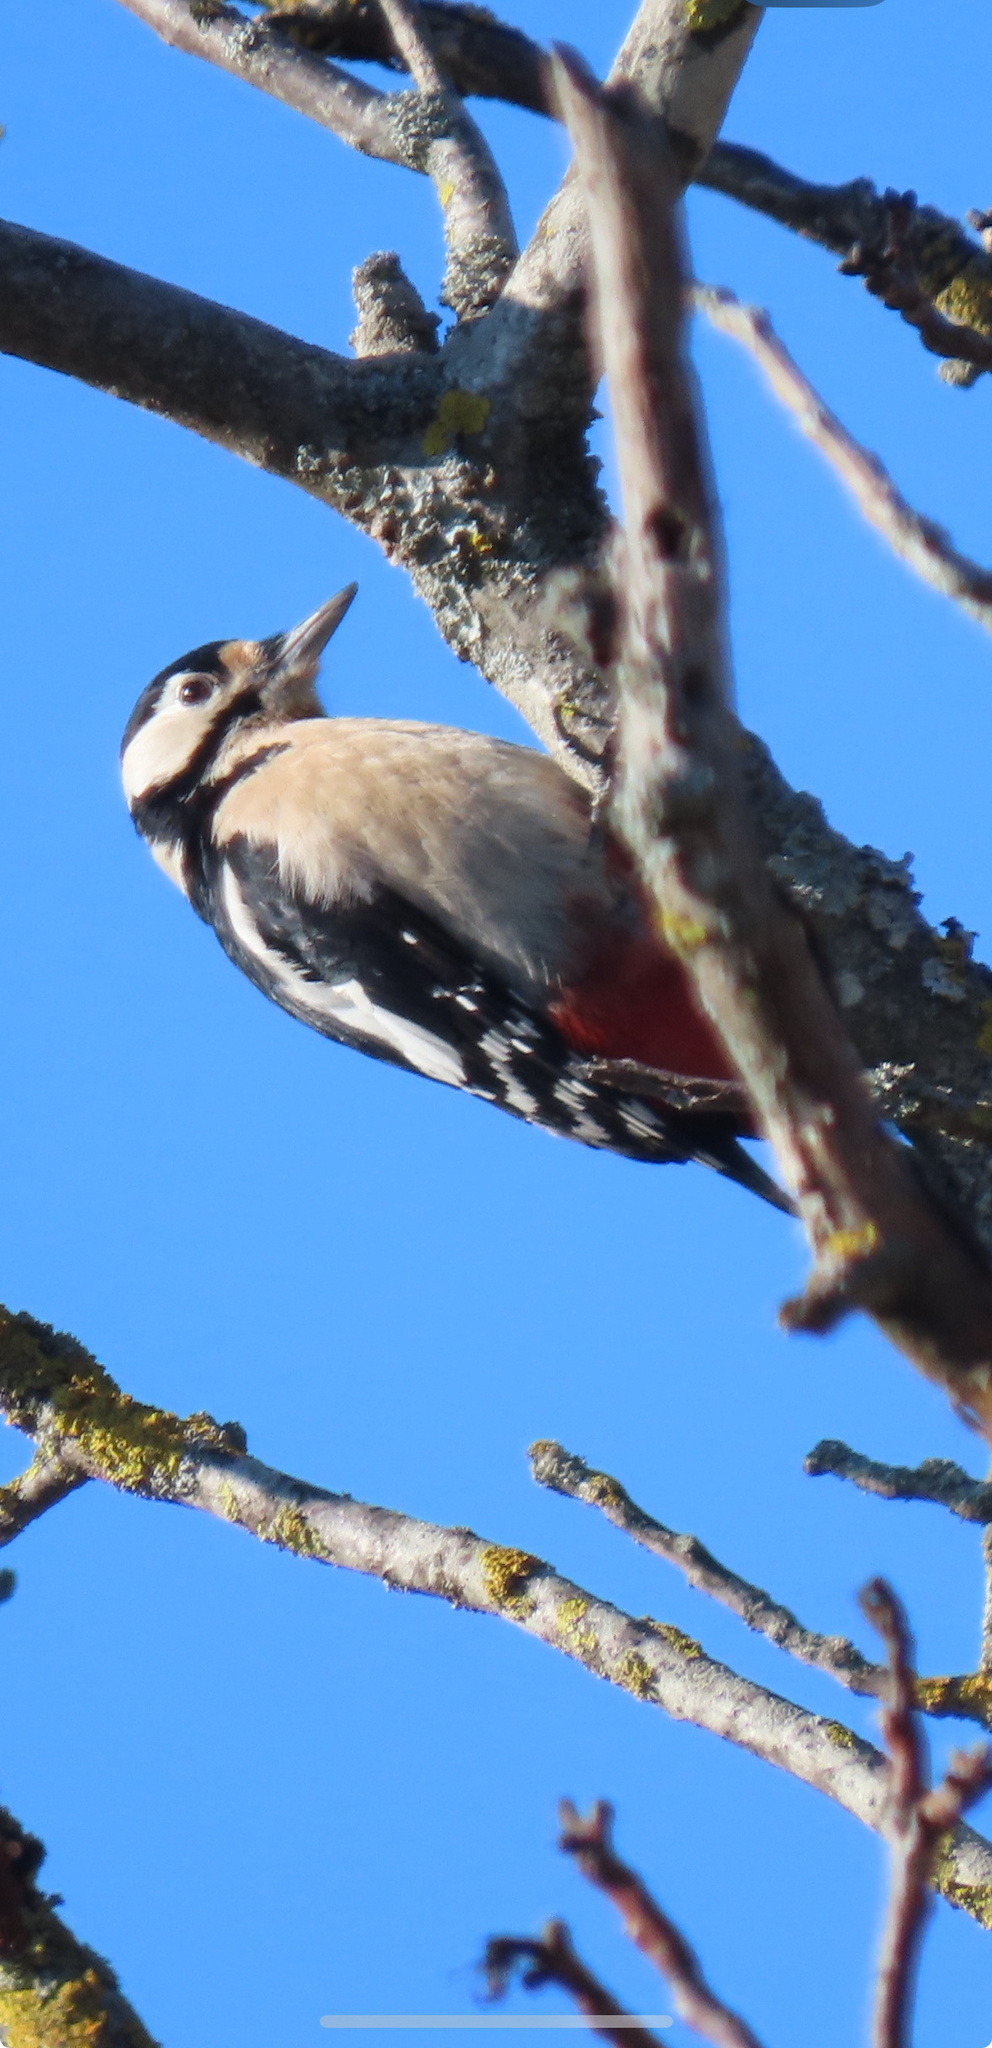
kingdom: Animalia
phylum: Chordata
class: Aves
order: Piciformes
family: Picidae
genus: Dendrocopos
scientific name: Dendrocopos major
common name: Great spotted woodpecker
